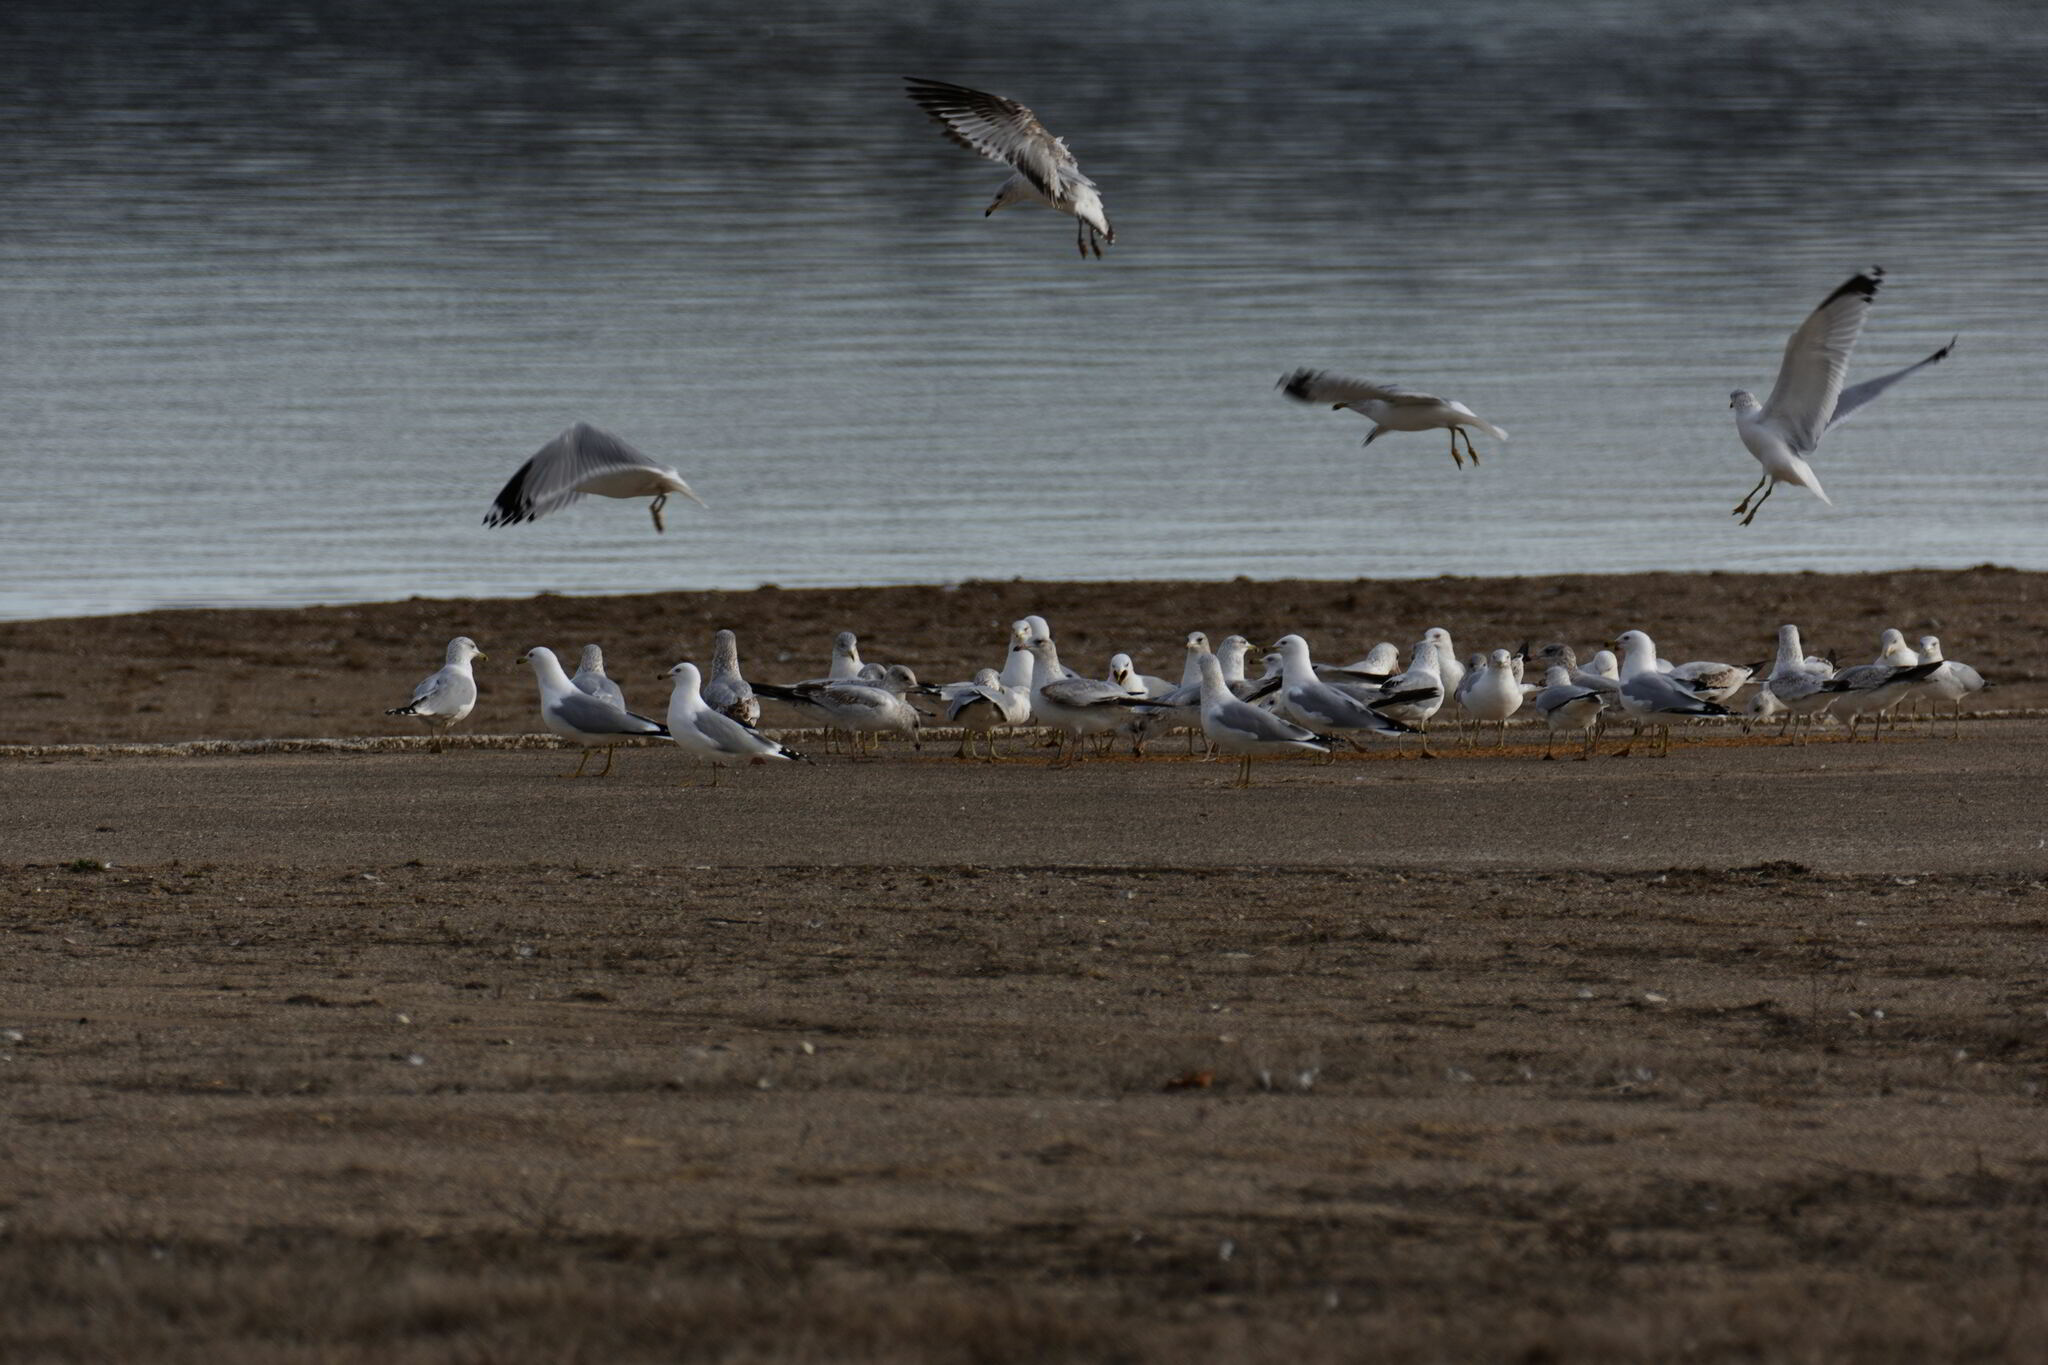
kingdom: Animalia
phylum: Chordata
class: Aves
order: Charadriiformes
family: Laridae
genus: Larus
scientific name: Larus delawarensis
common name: Ring-billed gull
